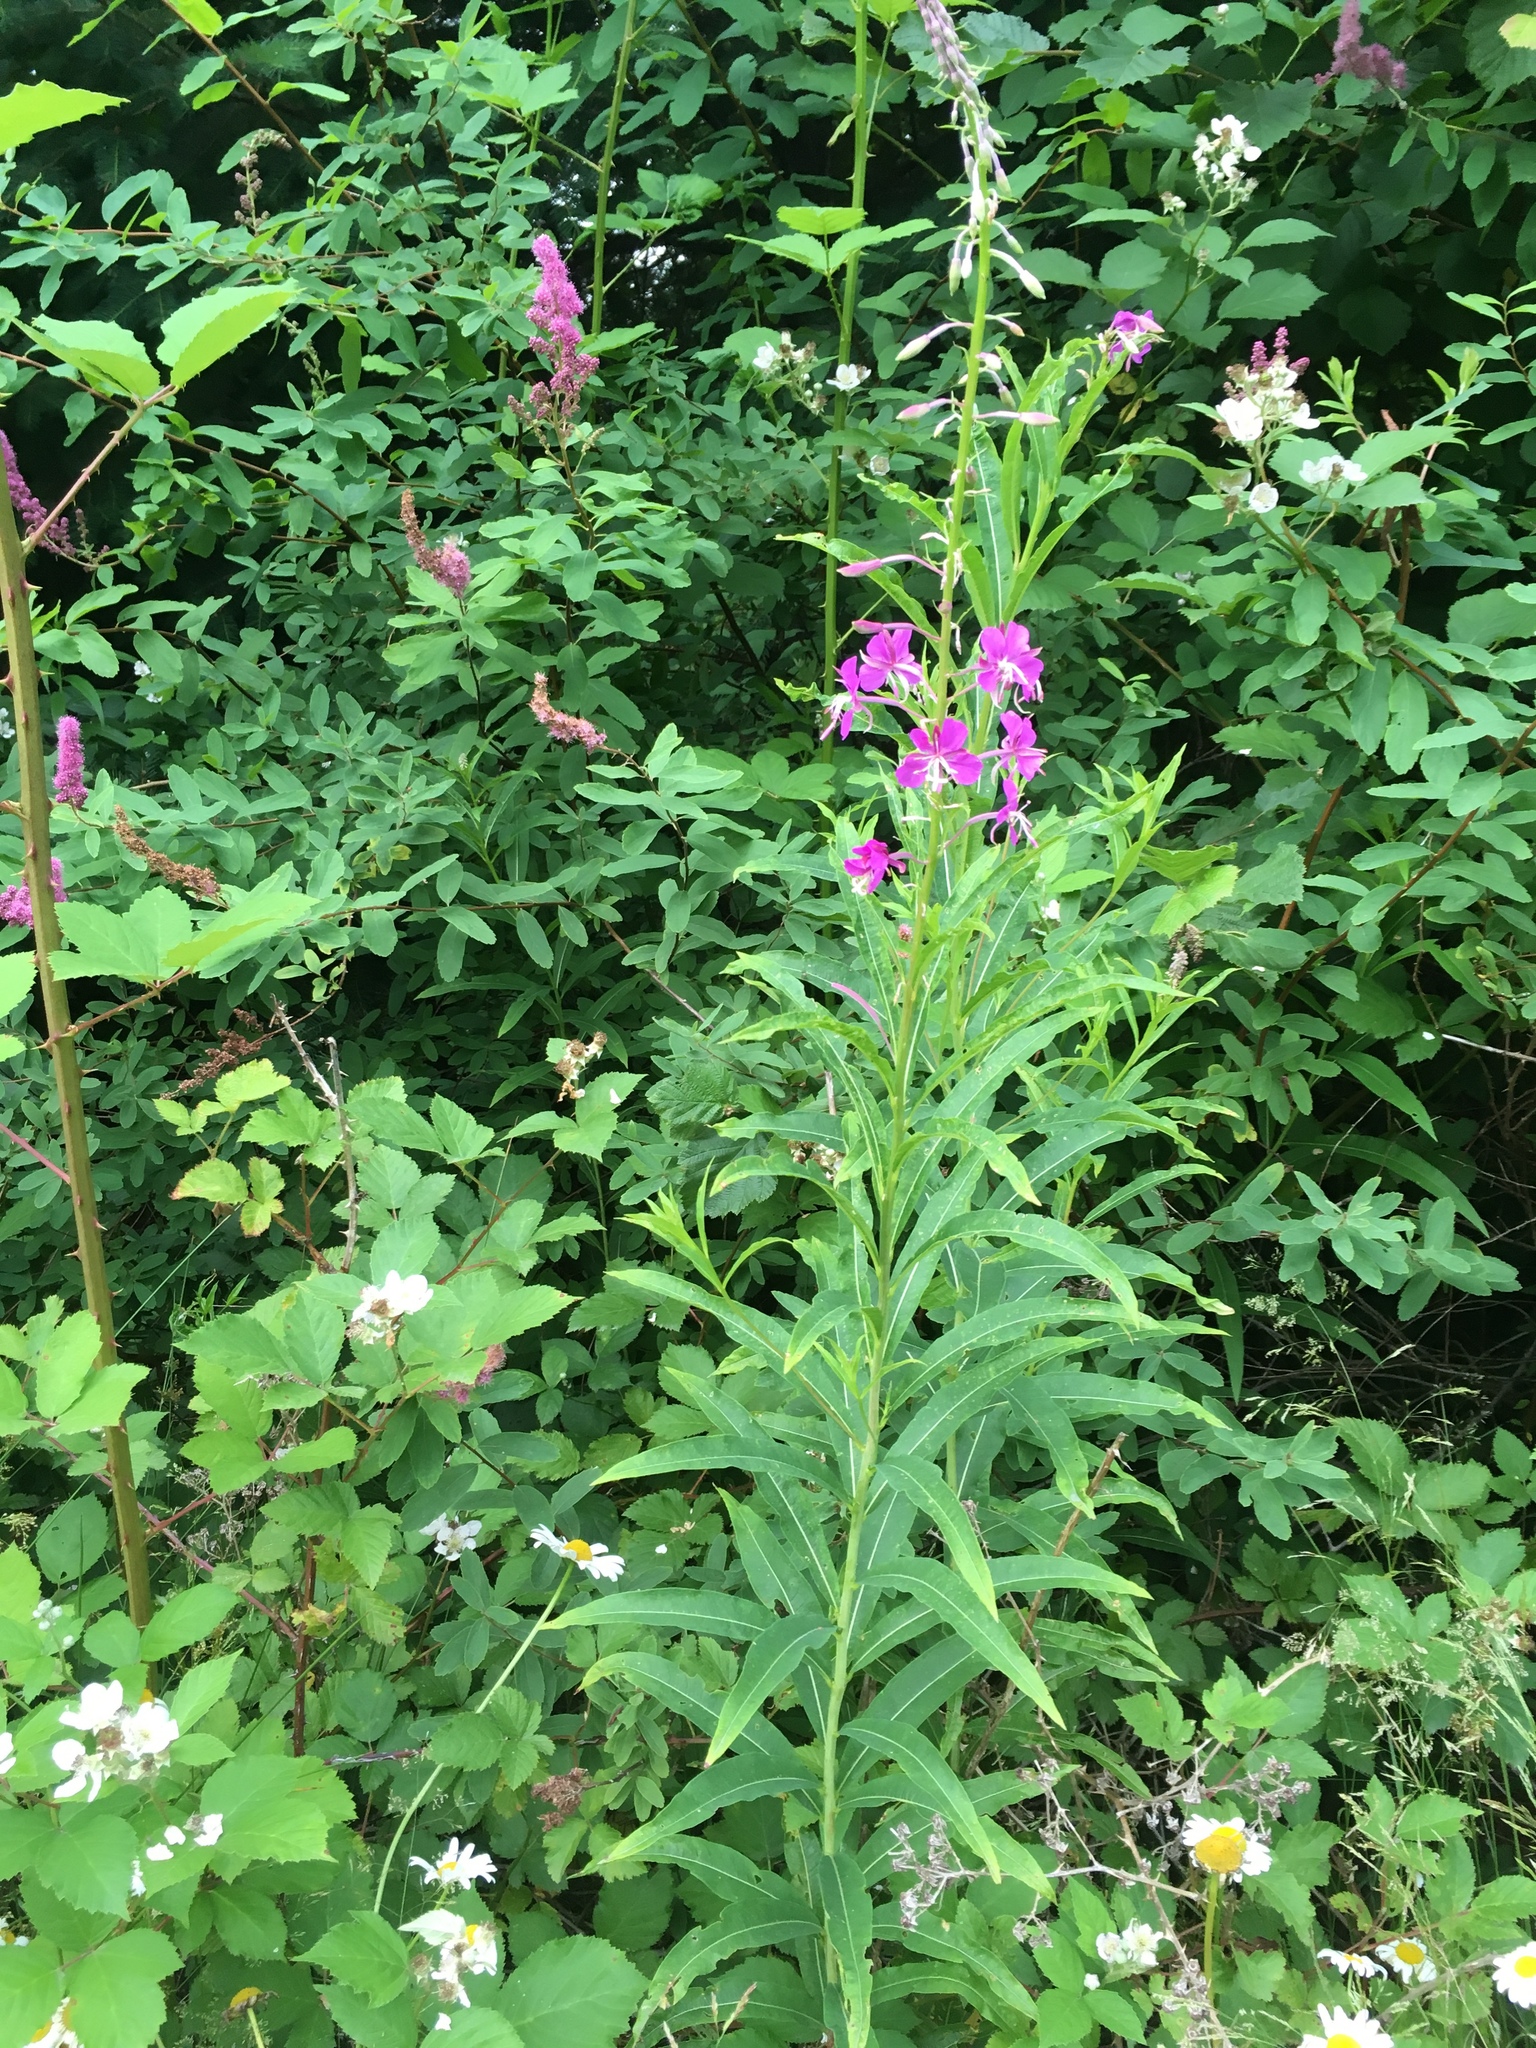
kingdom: Plantae
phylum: Tracheophyta
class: Magnoliopsida
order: Myrtales
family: Onagraceae
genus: Chamaenerion
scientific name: Chamaenerion angustifolium
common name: Fireweed
